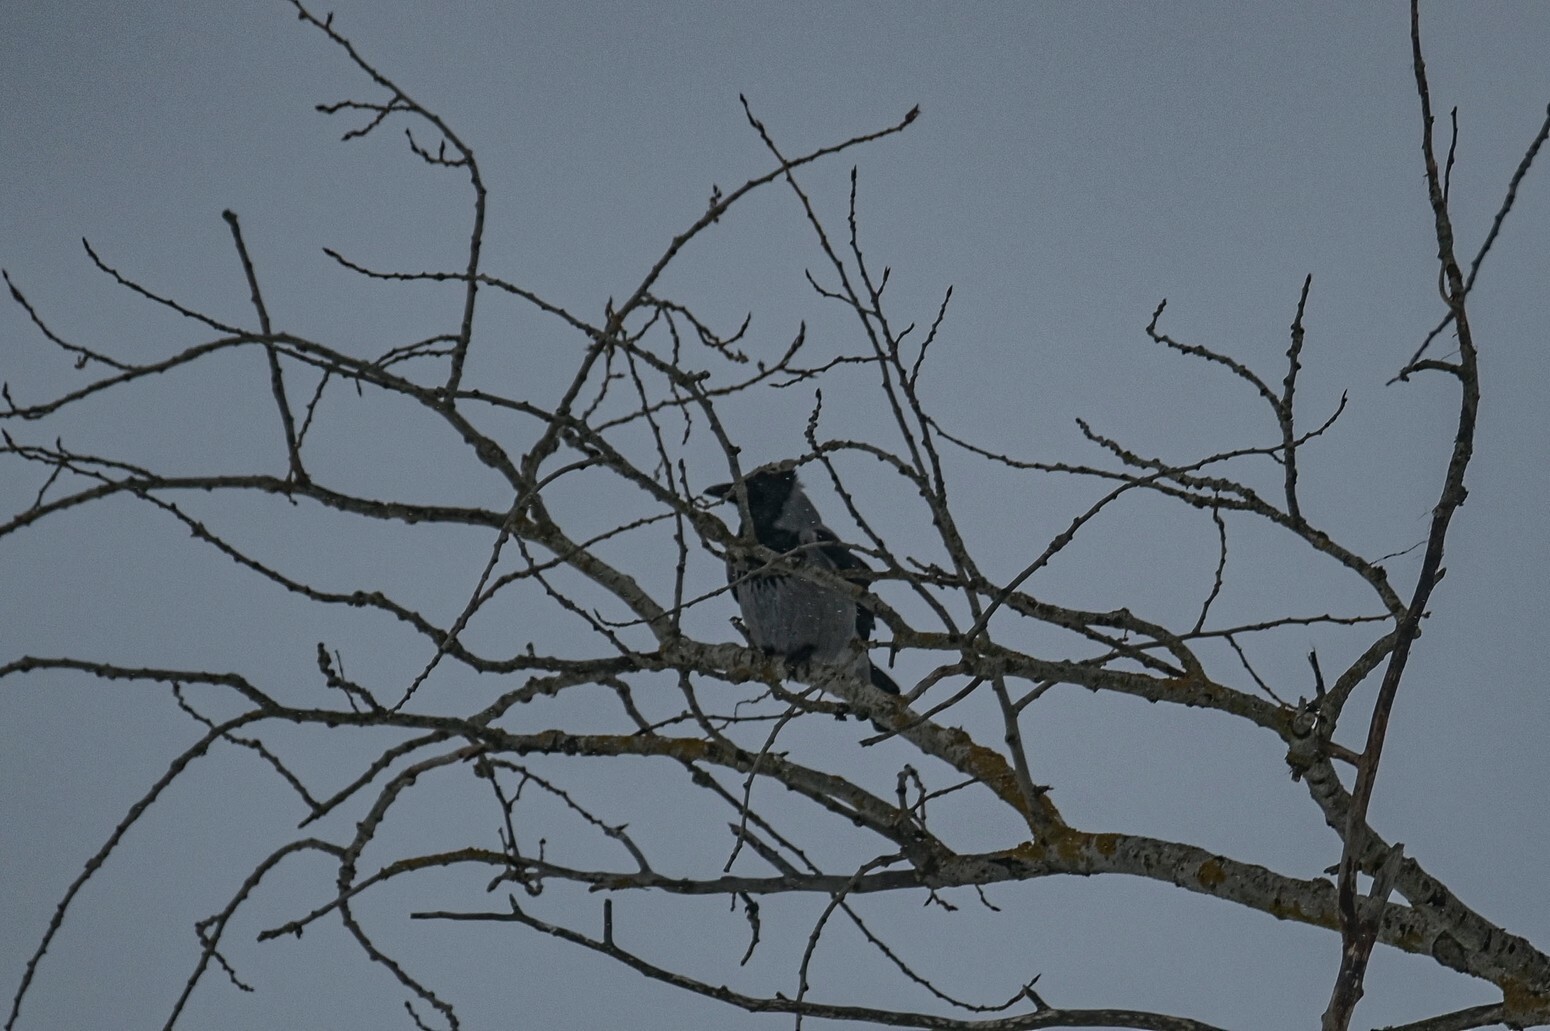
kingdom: Animalia
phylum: Chordata
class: Aves
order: Passeriformes
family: Corvidae
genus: Corvus
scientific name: Corvus cornix
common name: Hooded crow
